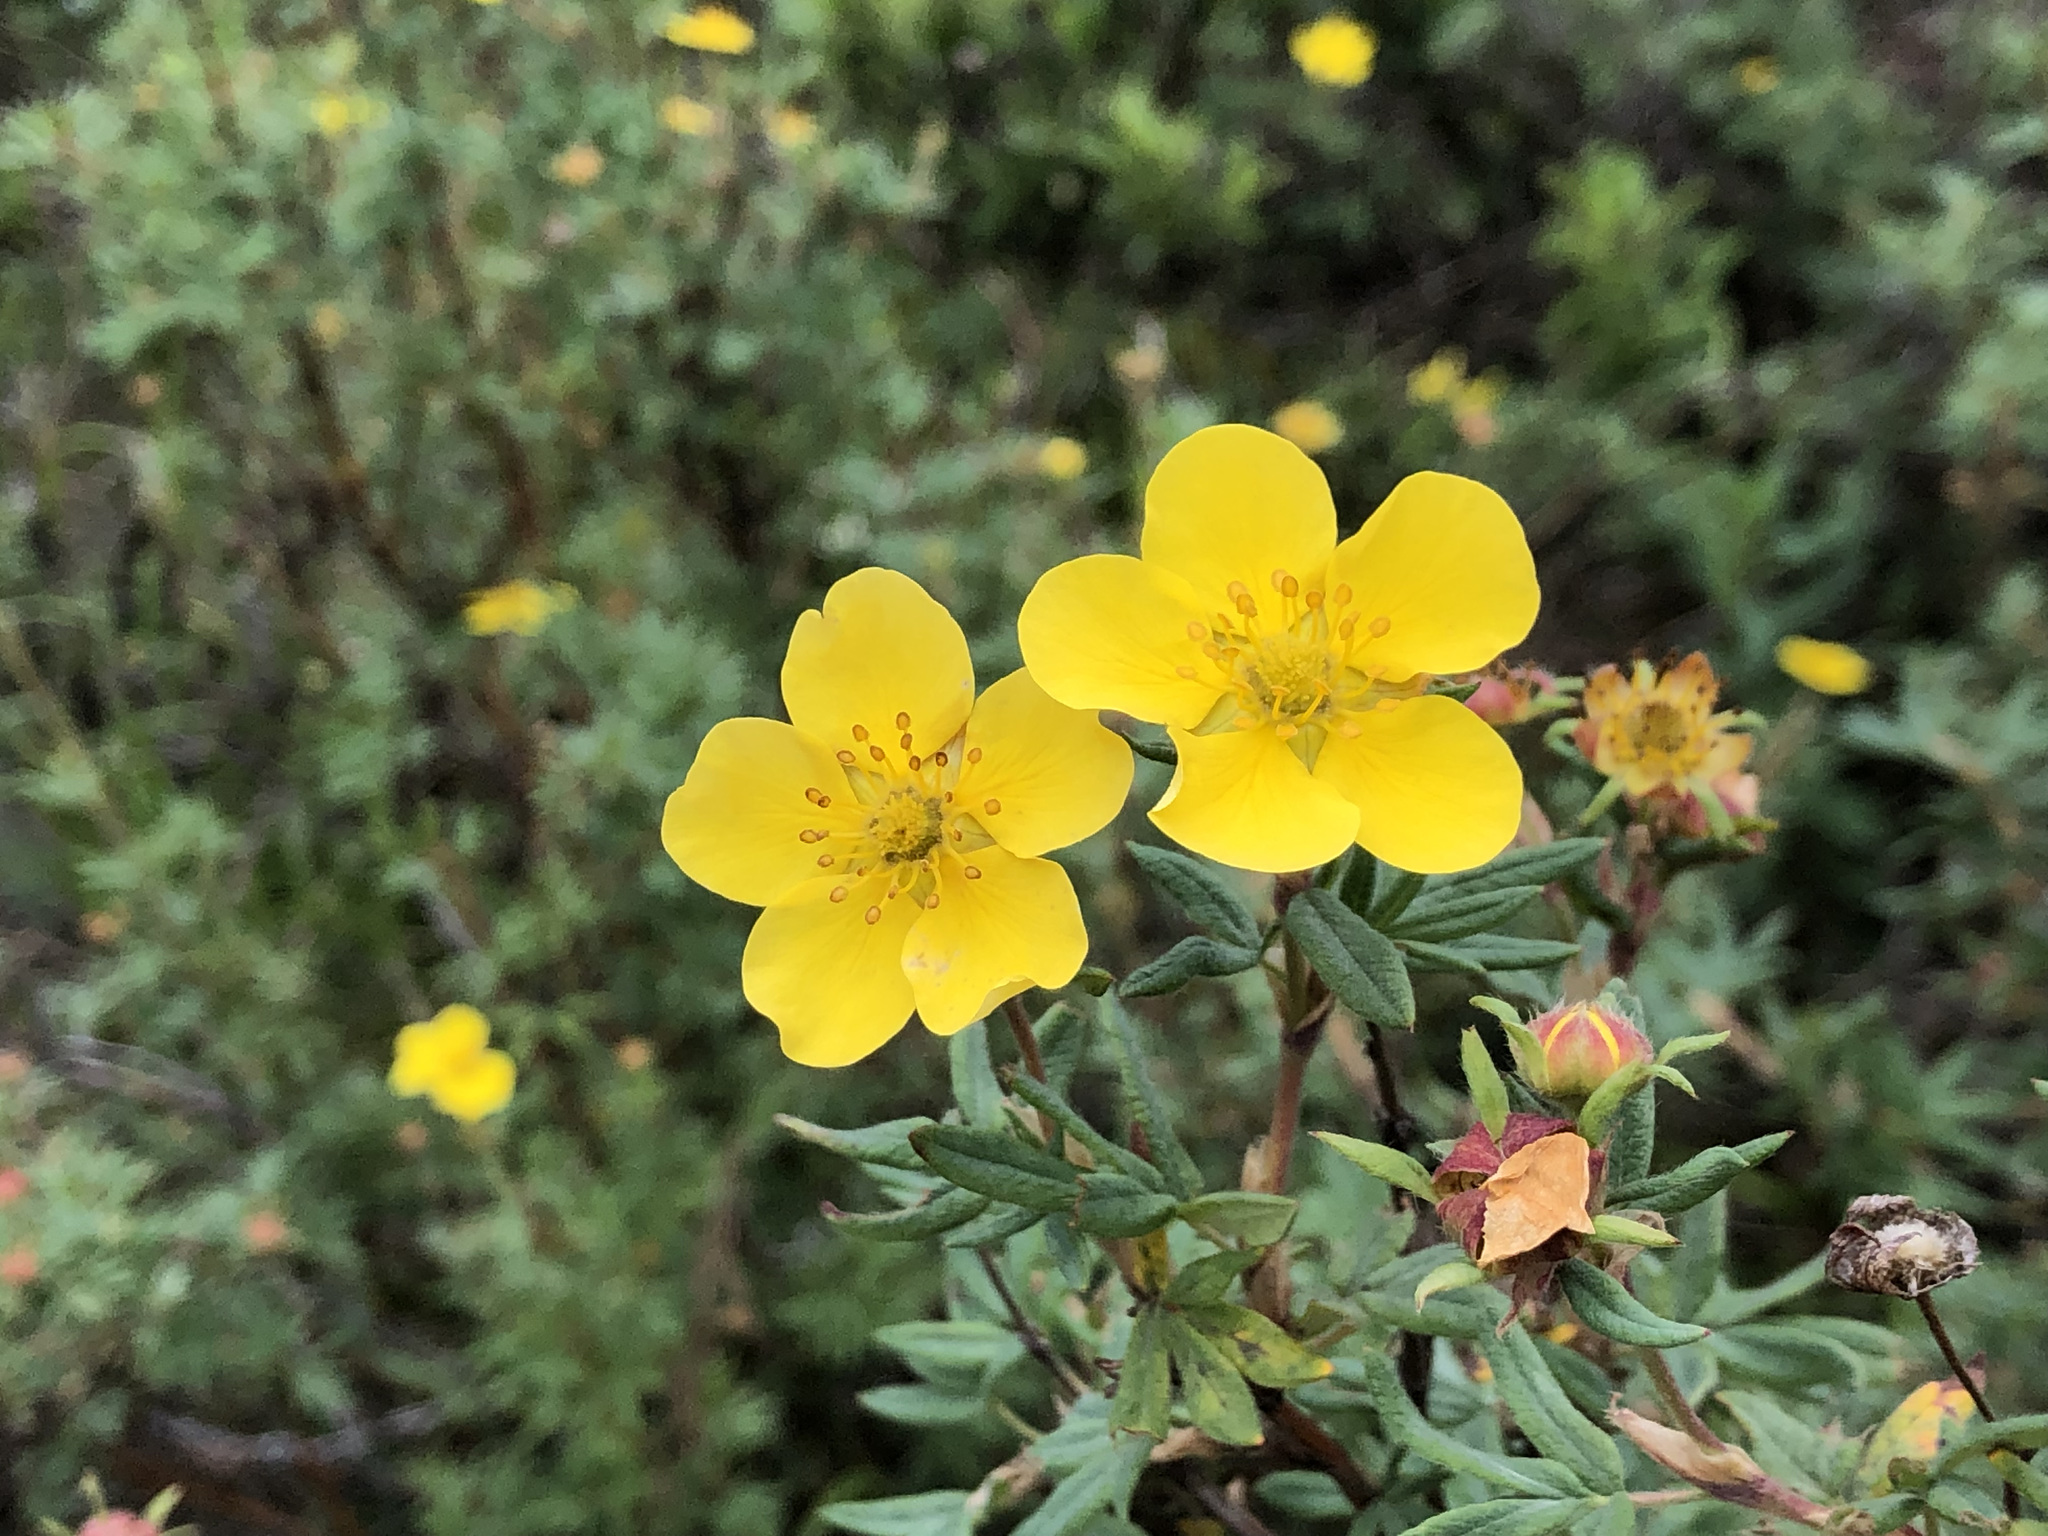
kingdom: Plantae
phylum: Tracheophyta
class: Magnoliopsida
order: Rosales
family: Rosaceae
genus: Dasiphora
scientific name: Dasiphora fruticosa
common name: Shrubby cinquefoil
